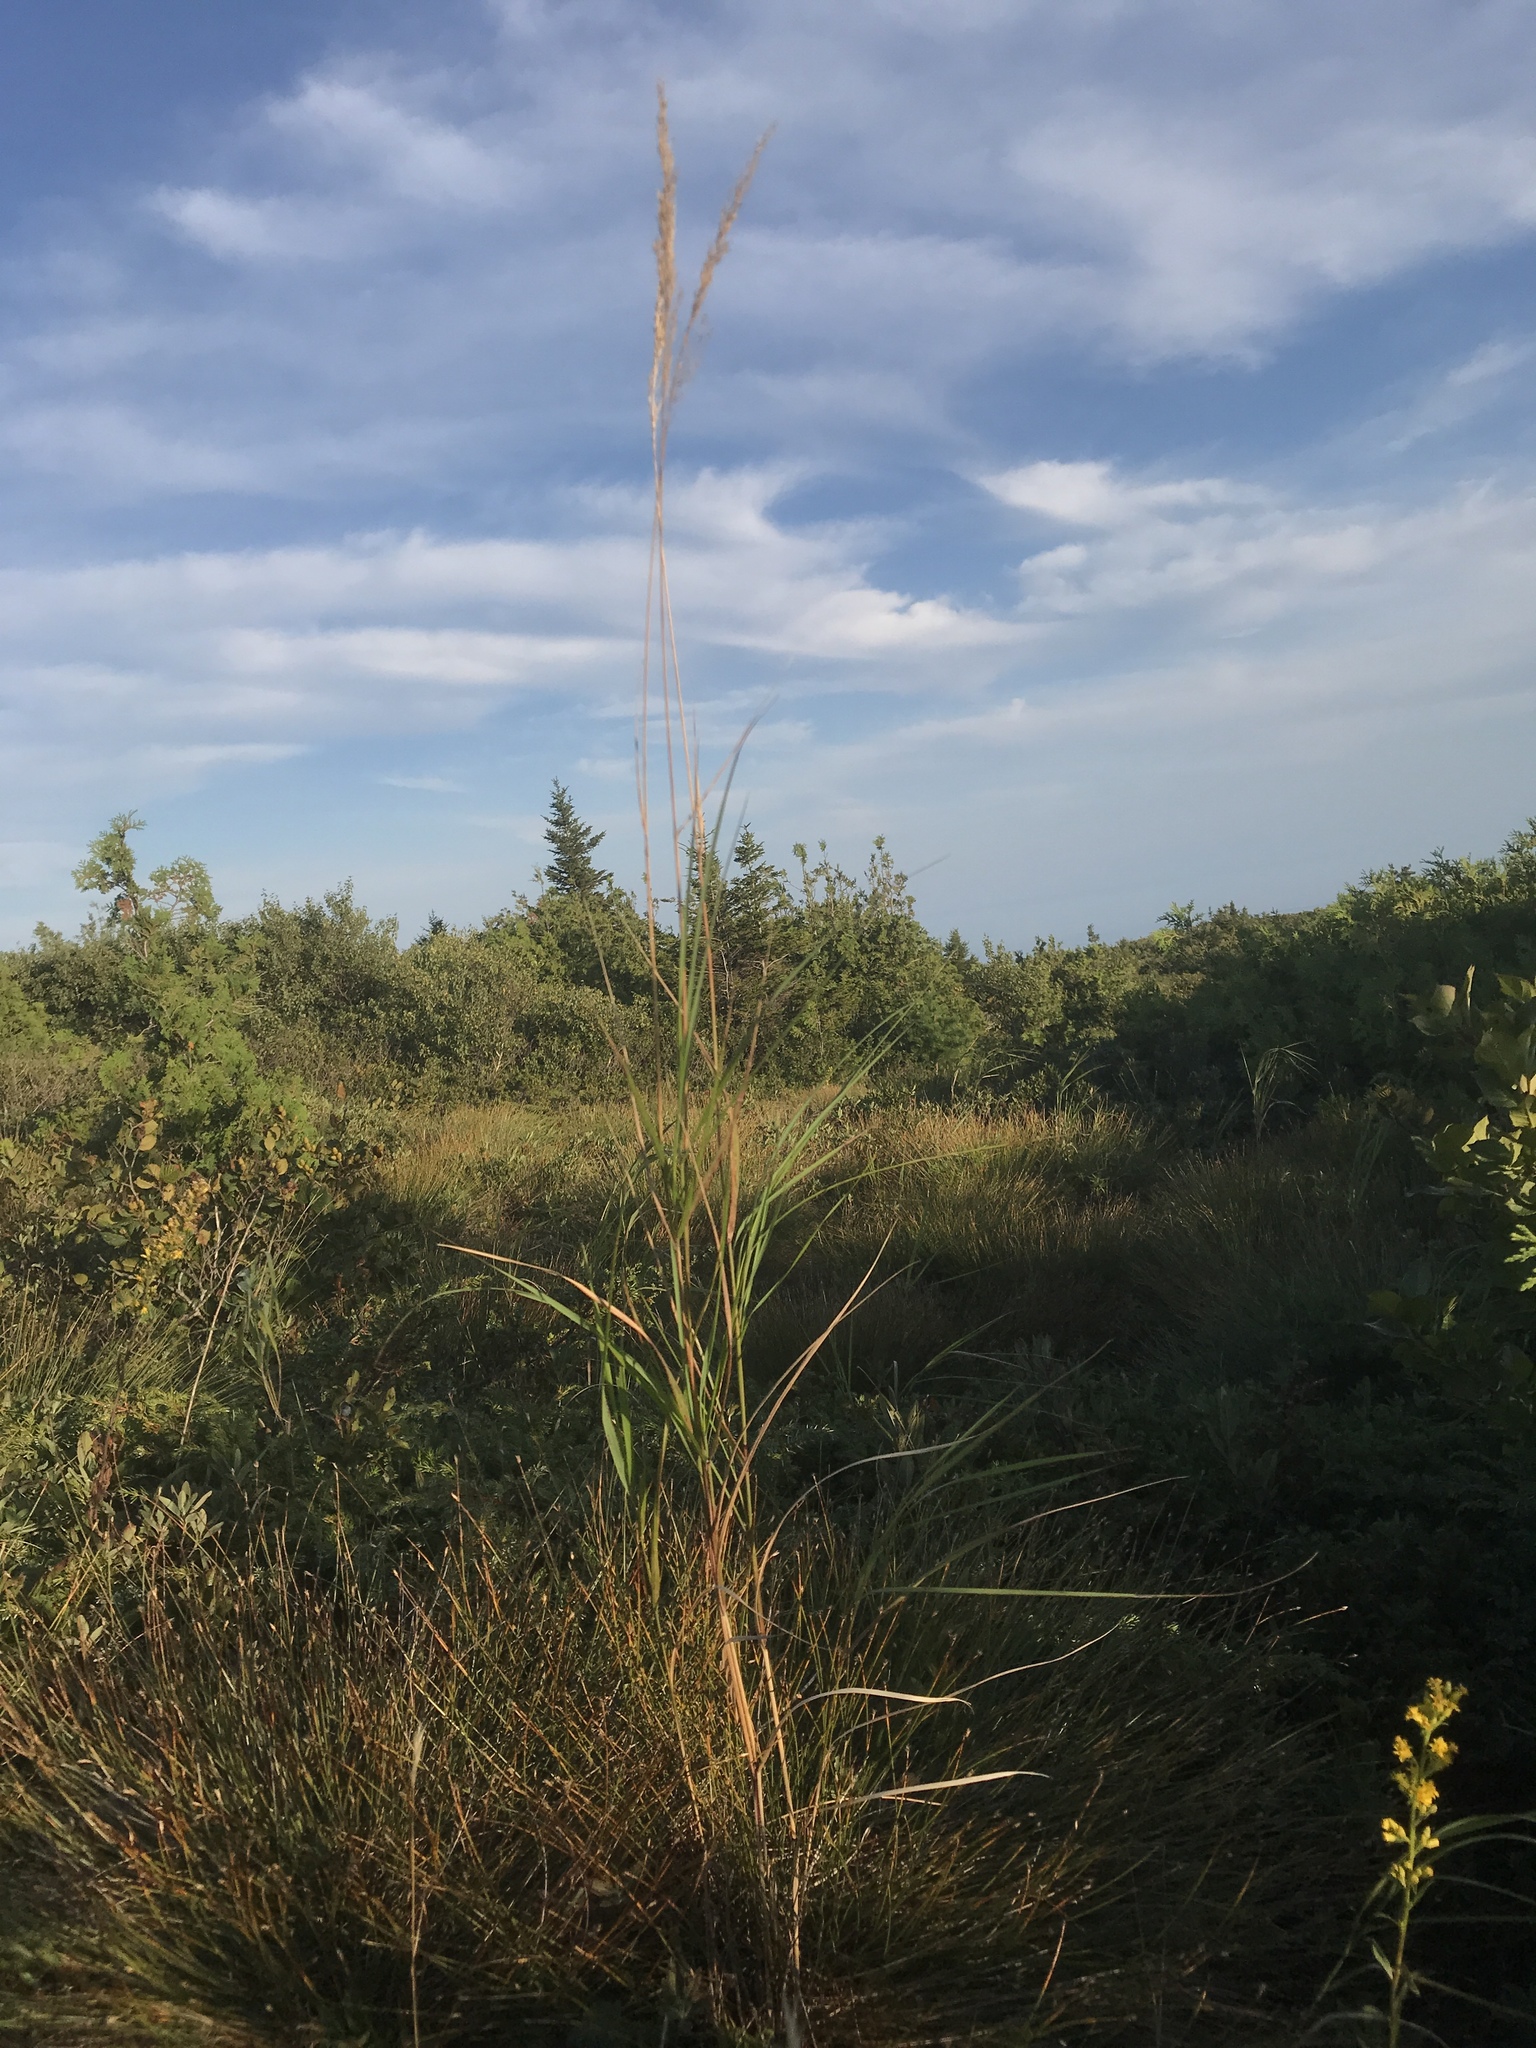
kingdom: Plantae
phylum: Tracheophyta
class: Liliopsida
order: Poales
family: Poaceae
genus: Calamagrostis
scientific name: Calamagrostis canadensis
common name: Canada bluejoint
